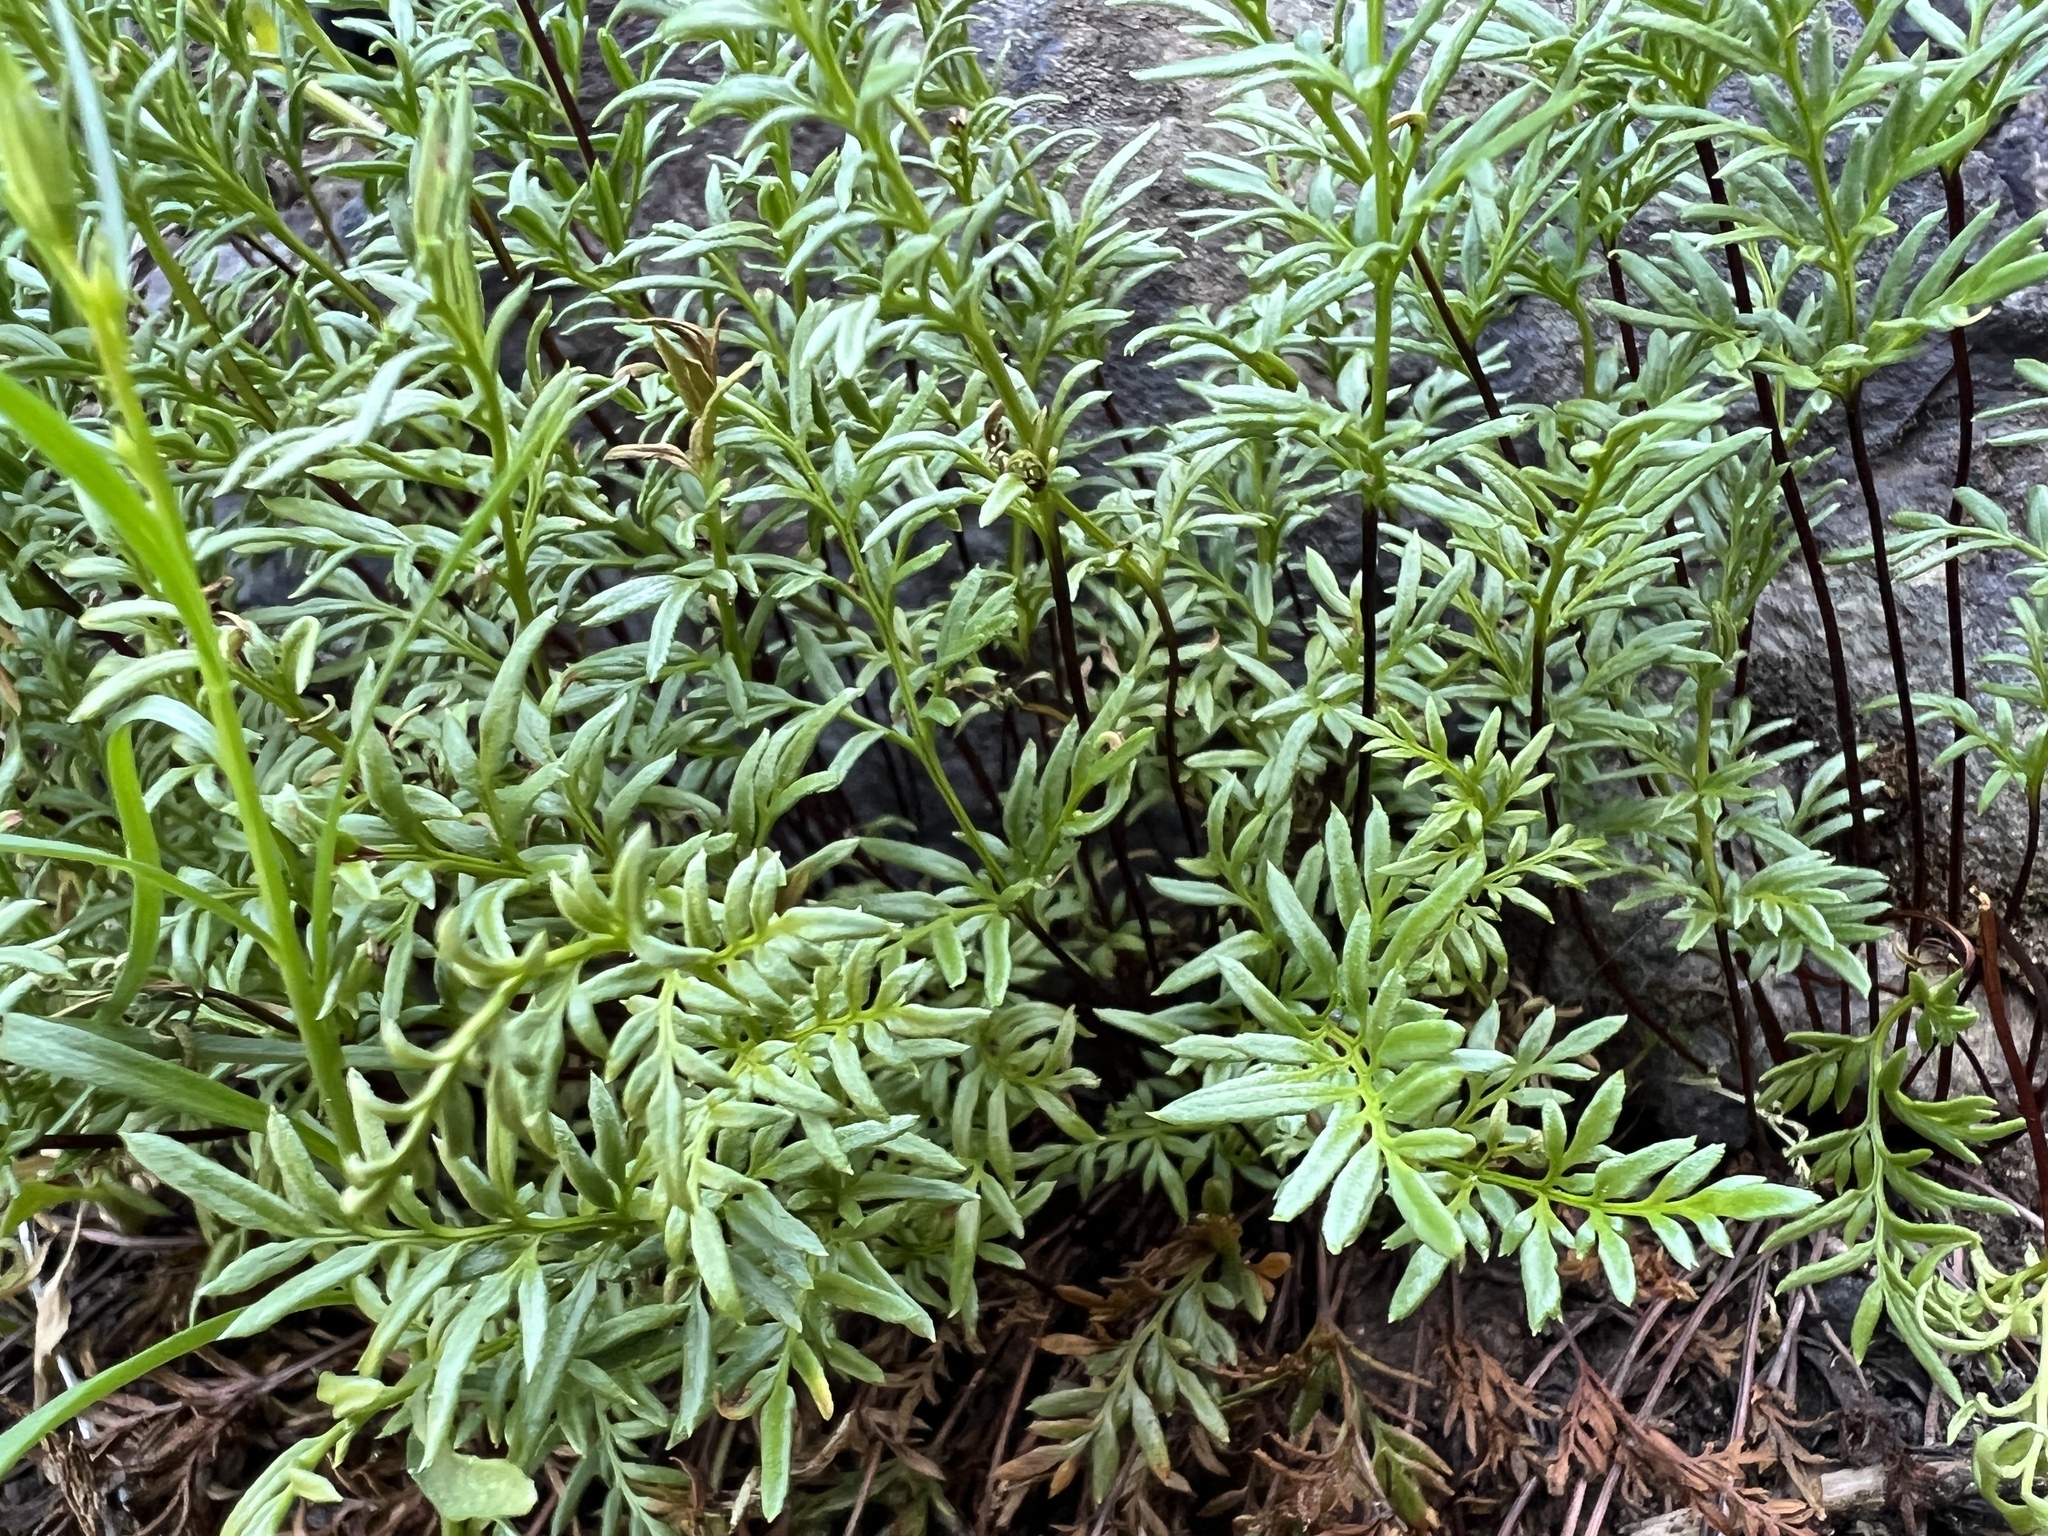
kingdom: Plantae
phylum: Tracheophyta
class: Polypodiopsida
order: Polypodiales
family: Pteridaceae
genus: Aspidotis
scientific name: Aspidotis densa
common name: Indian's dream
